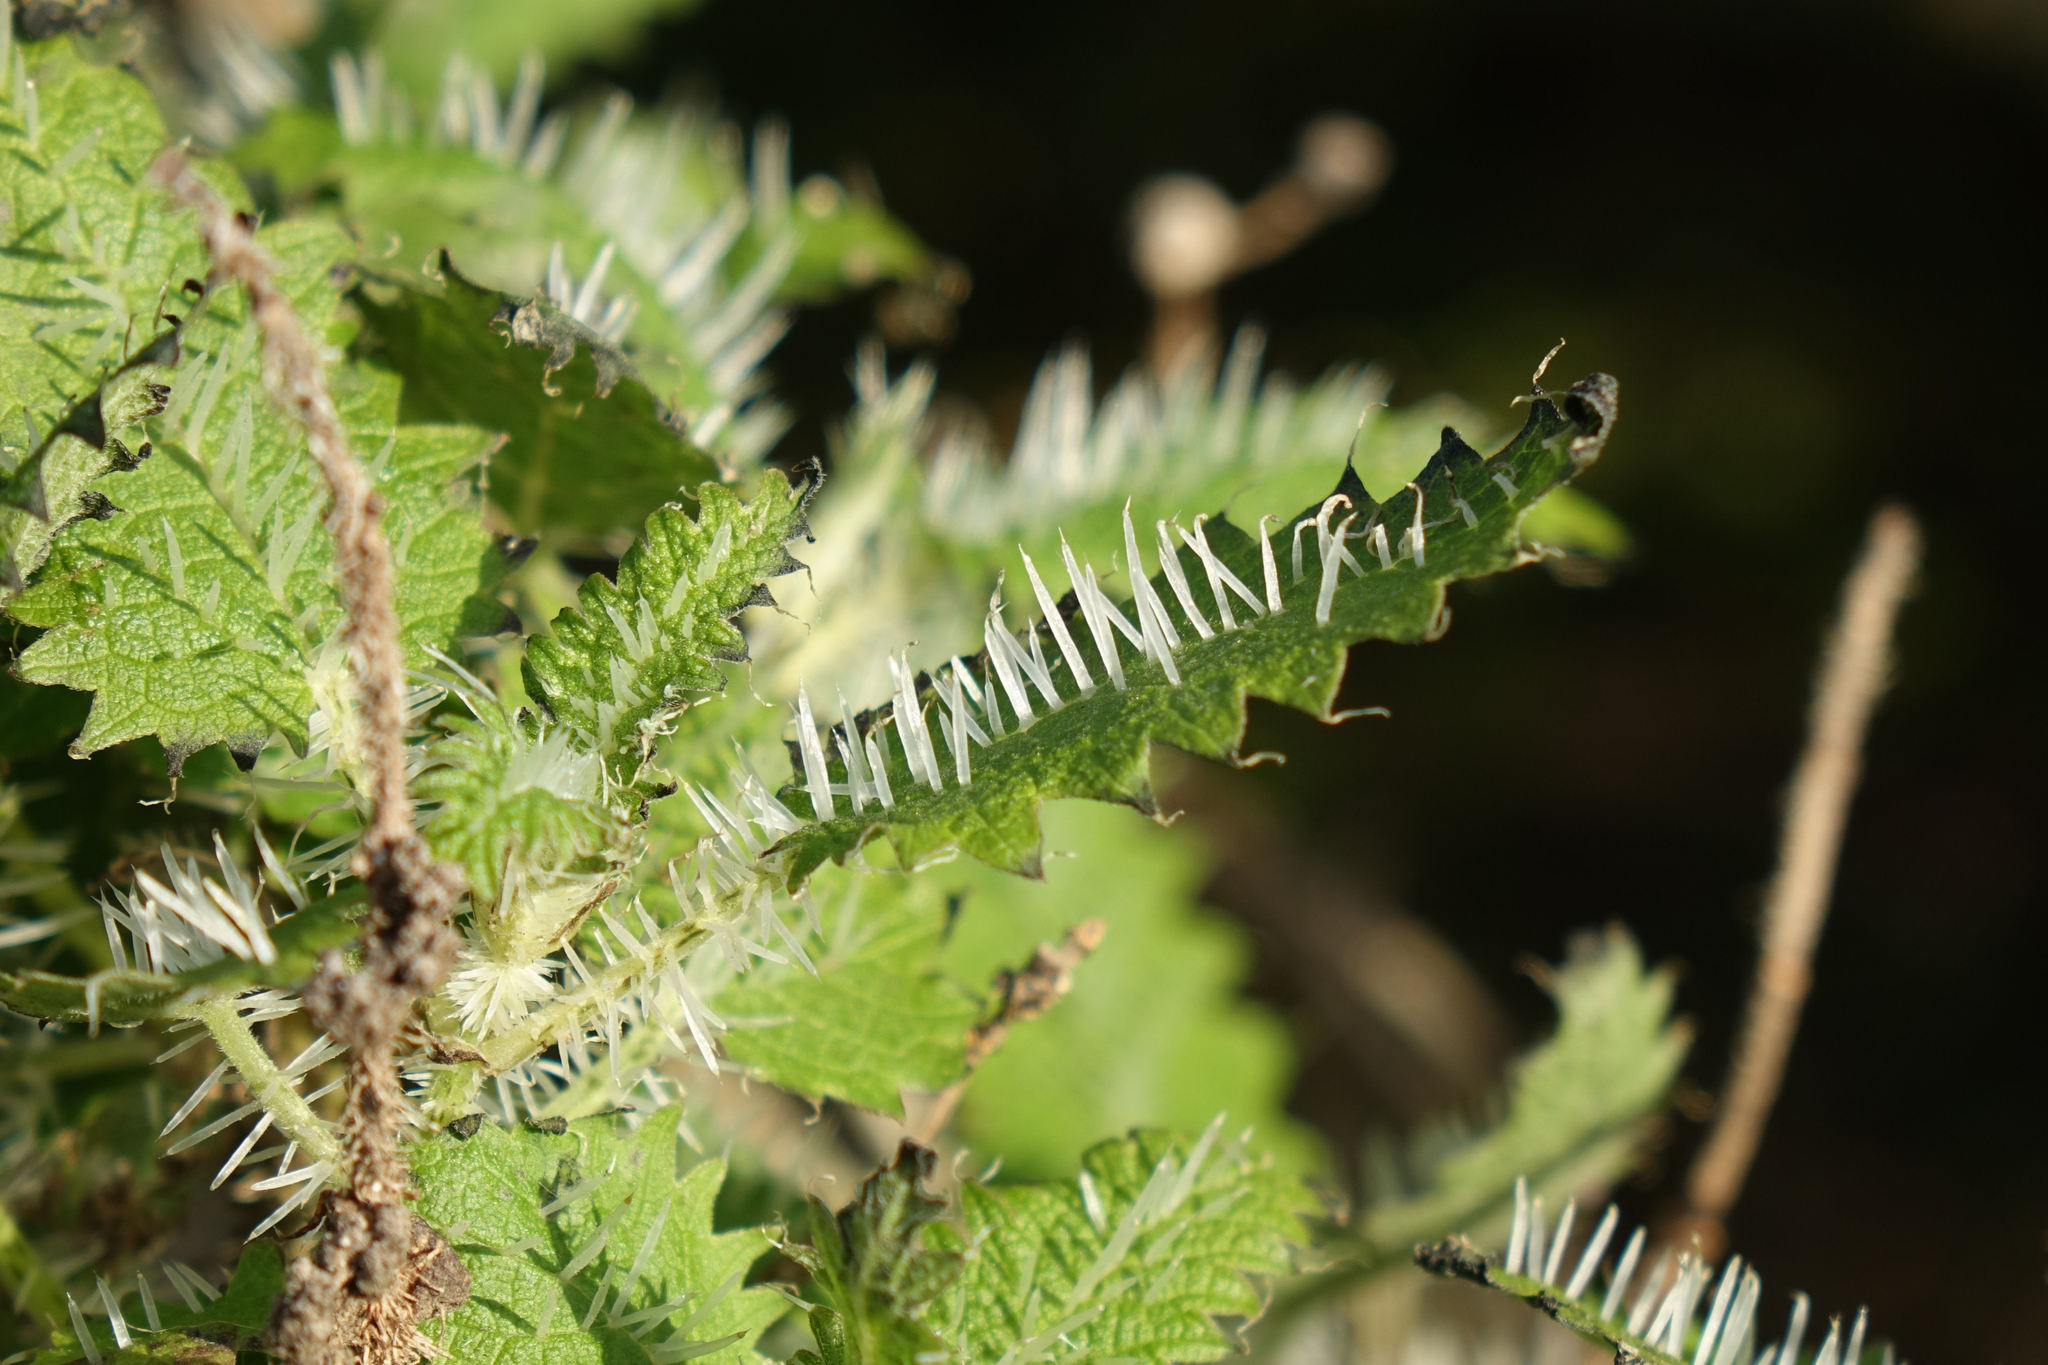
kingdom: Plantae
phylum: Tracheophyta
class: Magnoliopsida
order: Rosales
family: Urticaceae
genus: Urtica
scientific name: Urtica ferox
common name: Tree nettle
